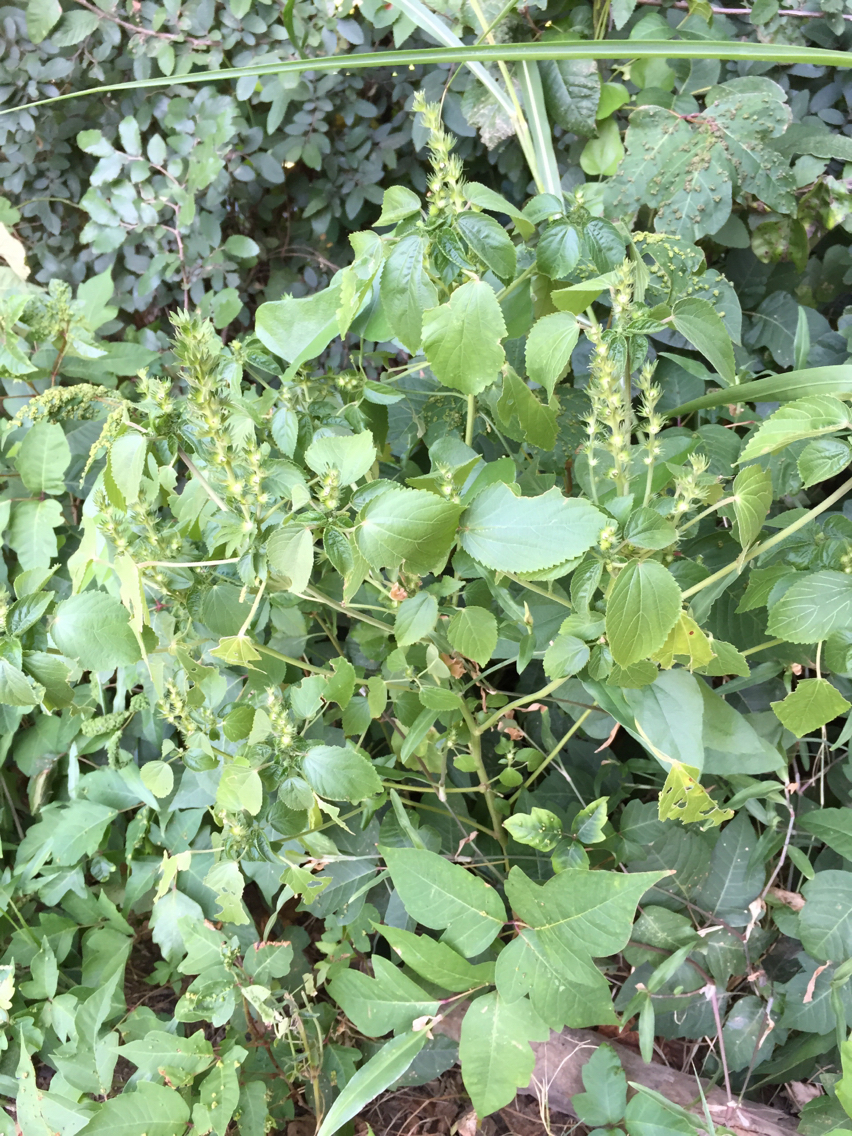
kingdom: Plantae
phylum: Tracheophyta
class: Magnoliopsida
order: Malpighiales
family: Euphorbiaceae
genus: Acalypha
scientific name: Acalypha ostryifolia
